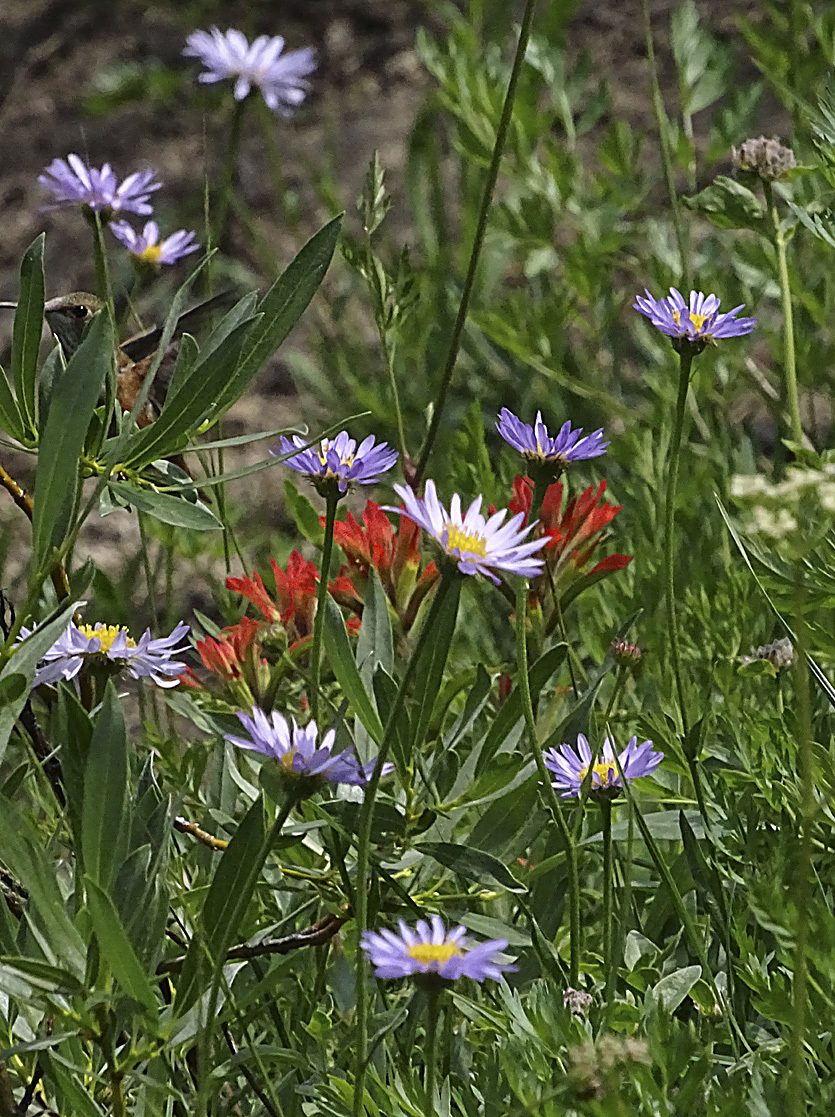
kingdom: Plantae
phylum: Tracheophyta
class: Magnoliopsida
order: Asterales
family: Asteraceae
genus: Erigeron
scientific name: Erigeron glacialis
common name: Subalpine fleabane
